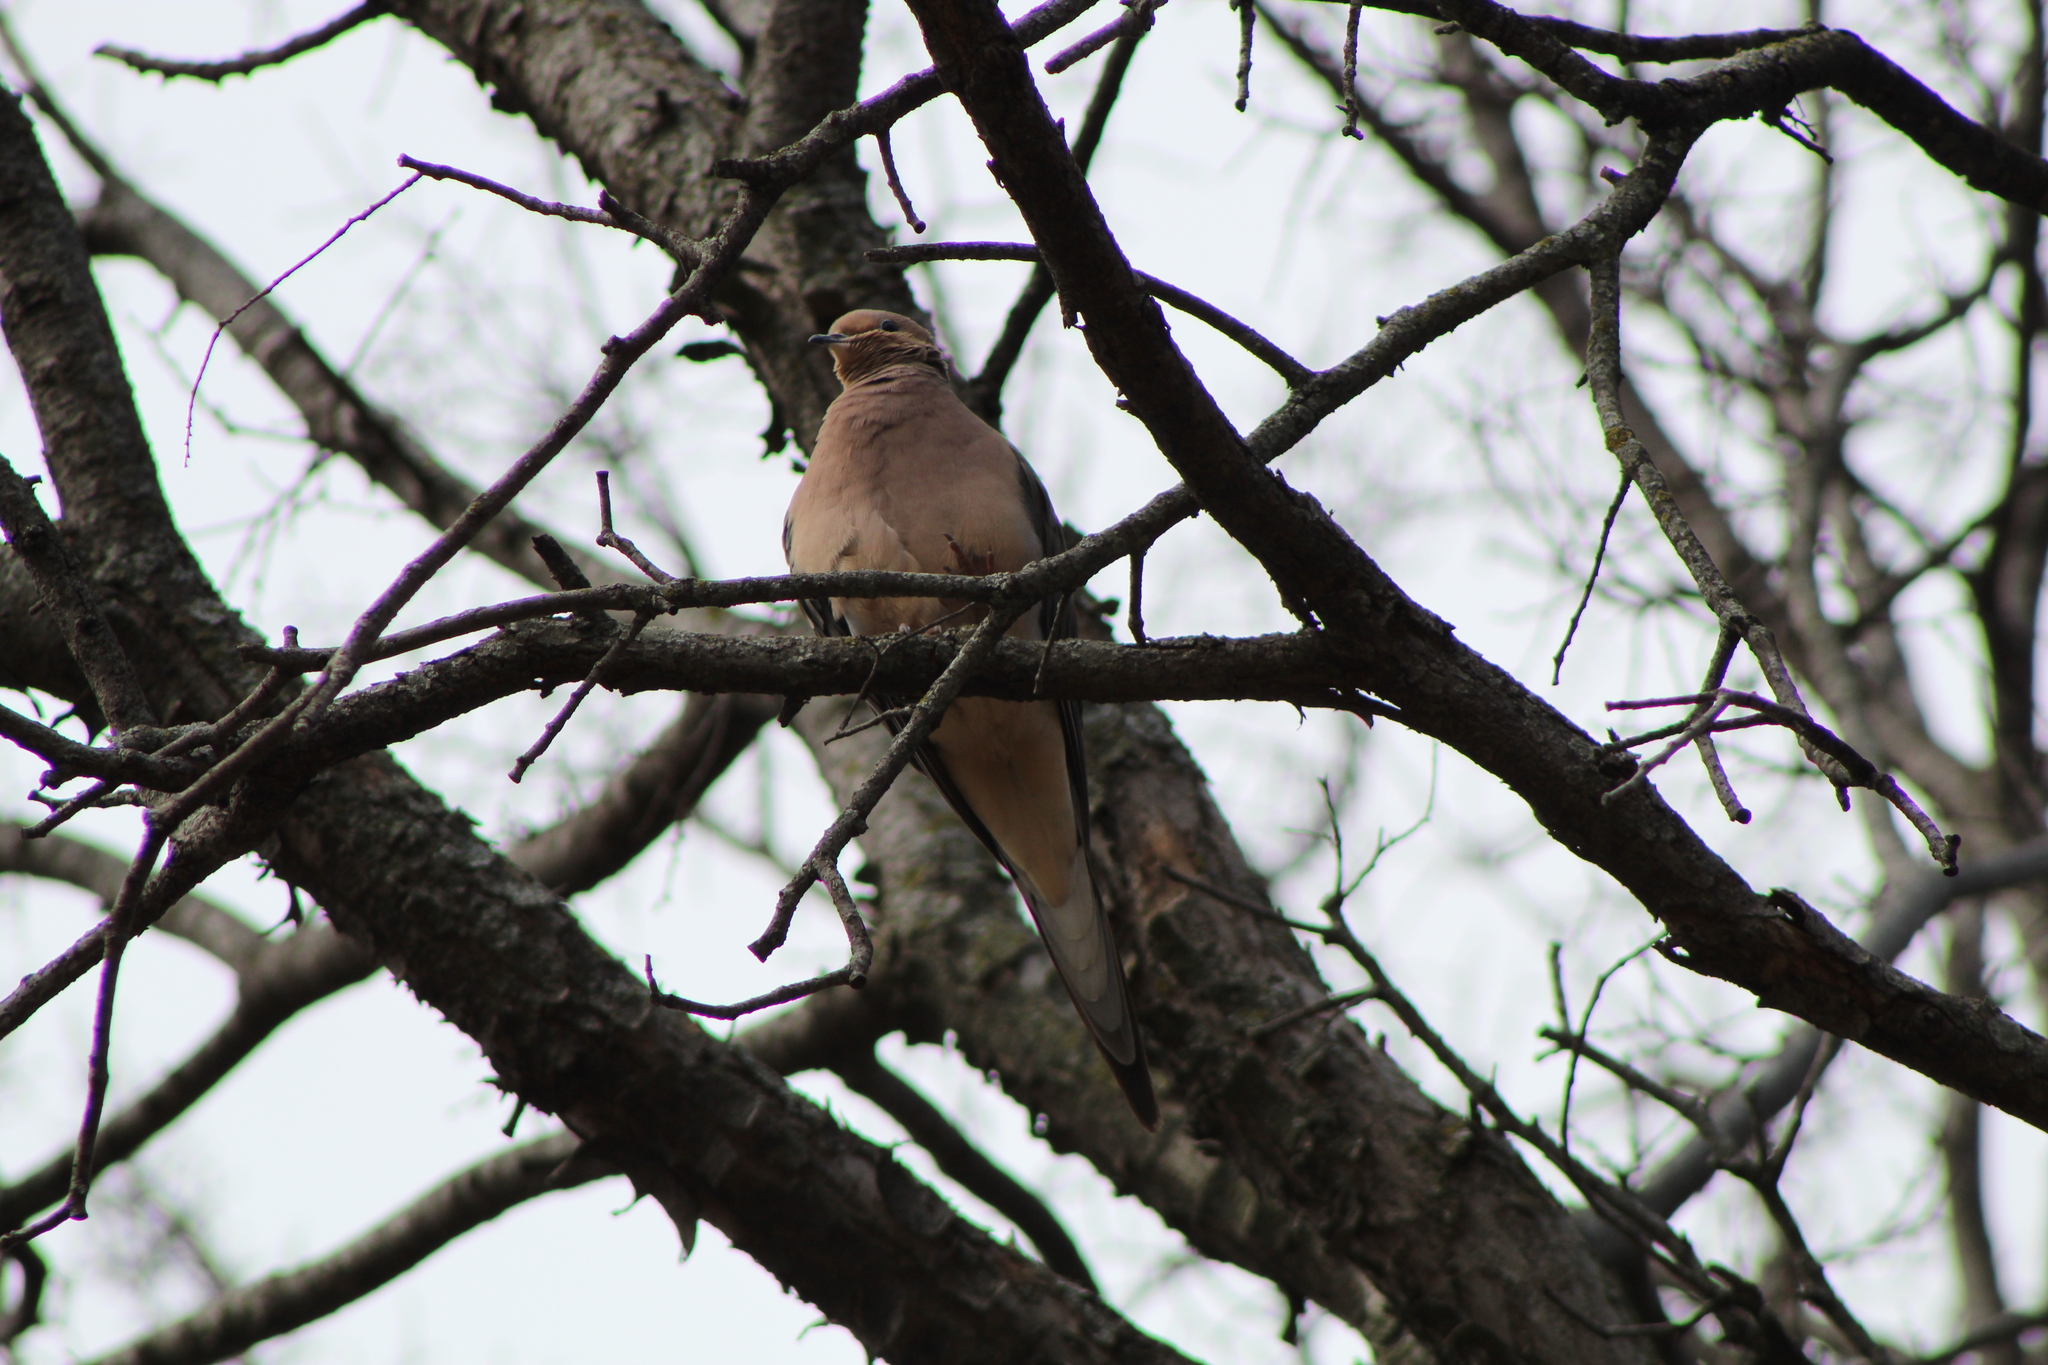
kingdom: Animalia
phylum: Chordata
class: Aves
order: Columbiformes
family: Columbidae
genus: Zenaida
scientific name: Zenaida macroura
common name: Mourning dove
